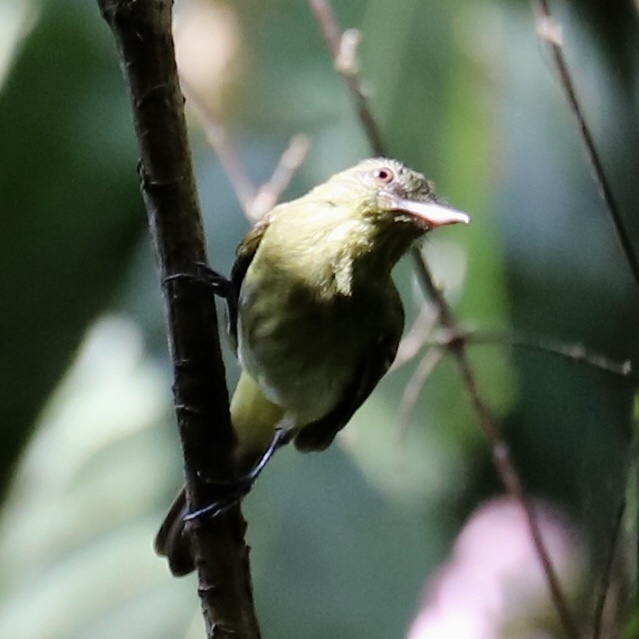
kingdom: Animalia
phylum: Chordata
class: Aves
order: Passeriformes
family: Tyrannidae
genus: Attila
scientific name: Attila spadiceus
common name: Bright-rumped attila
